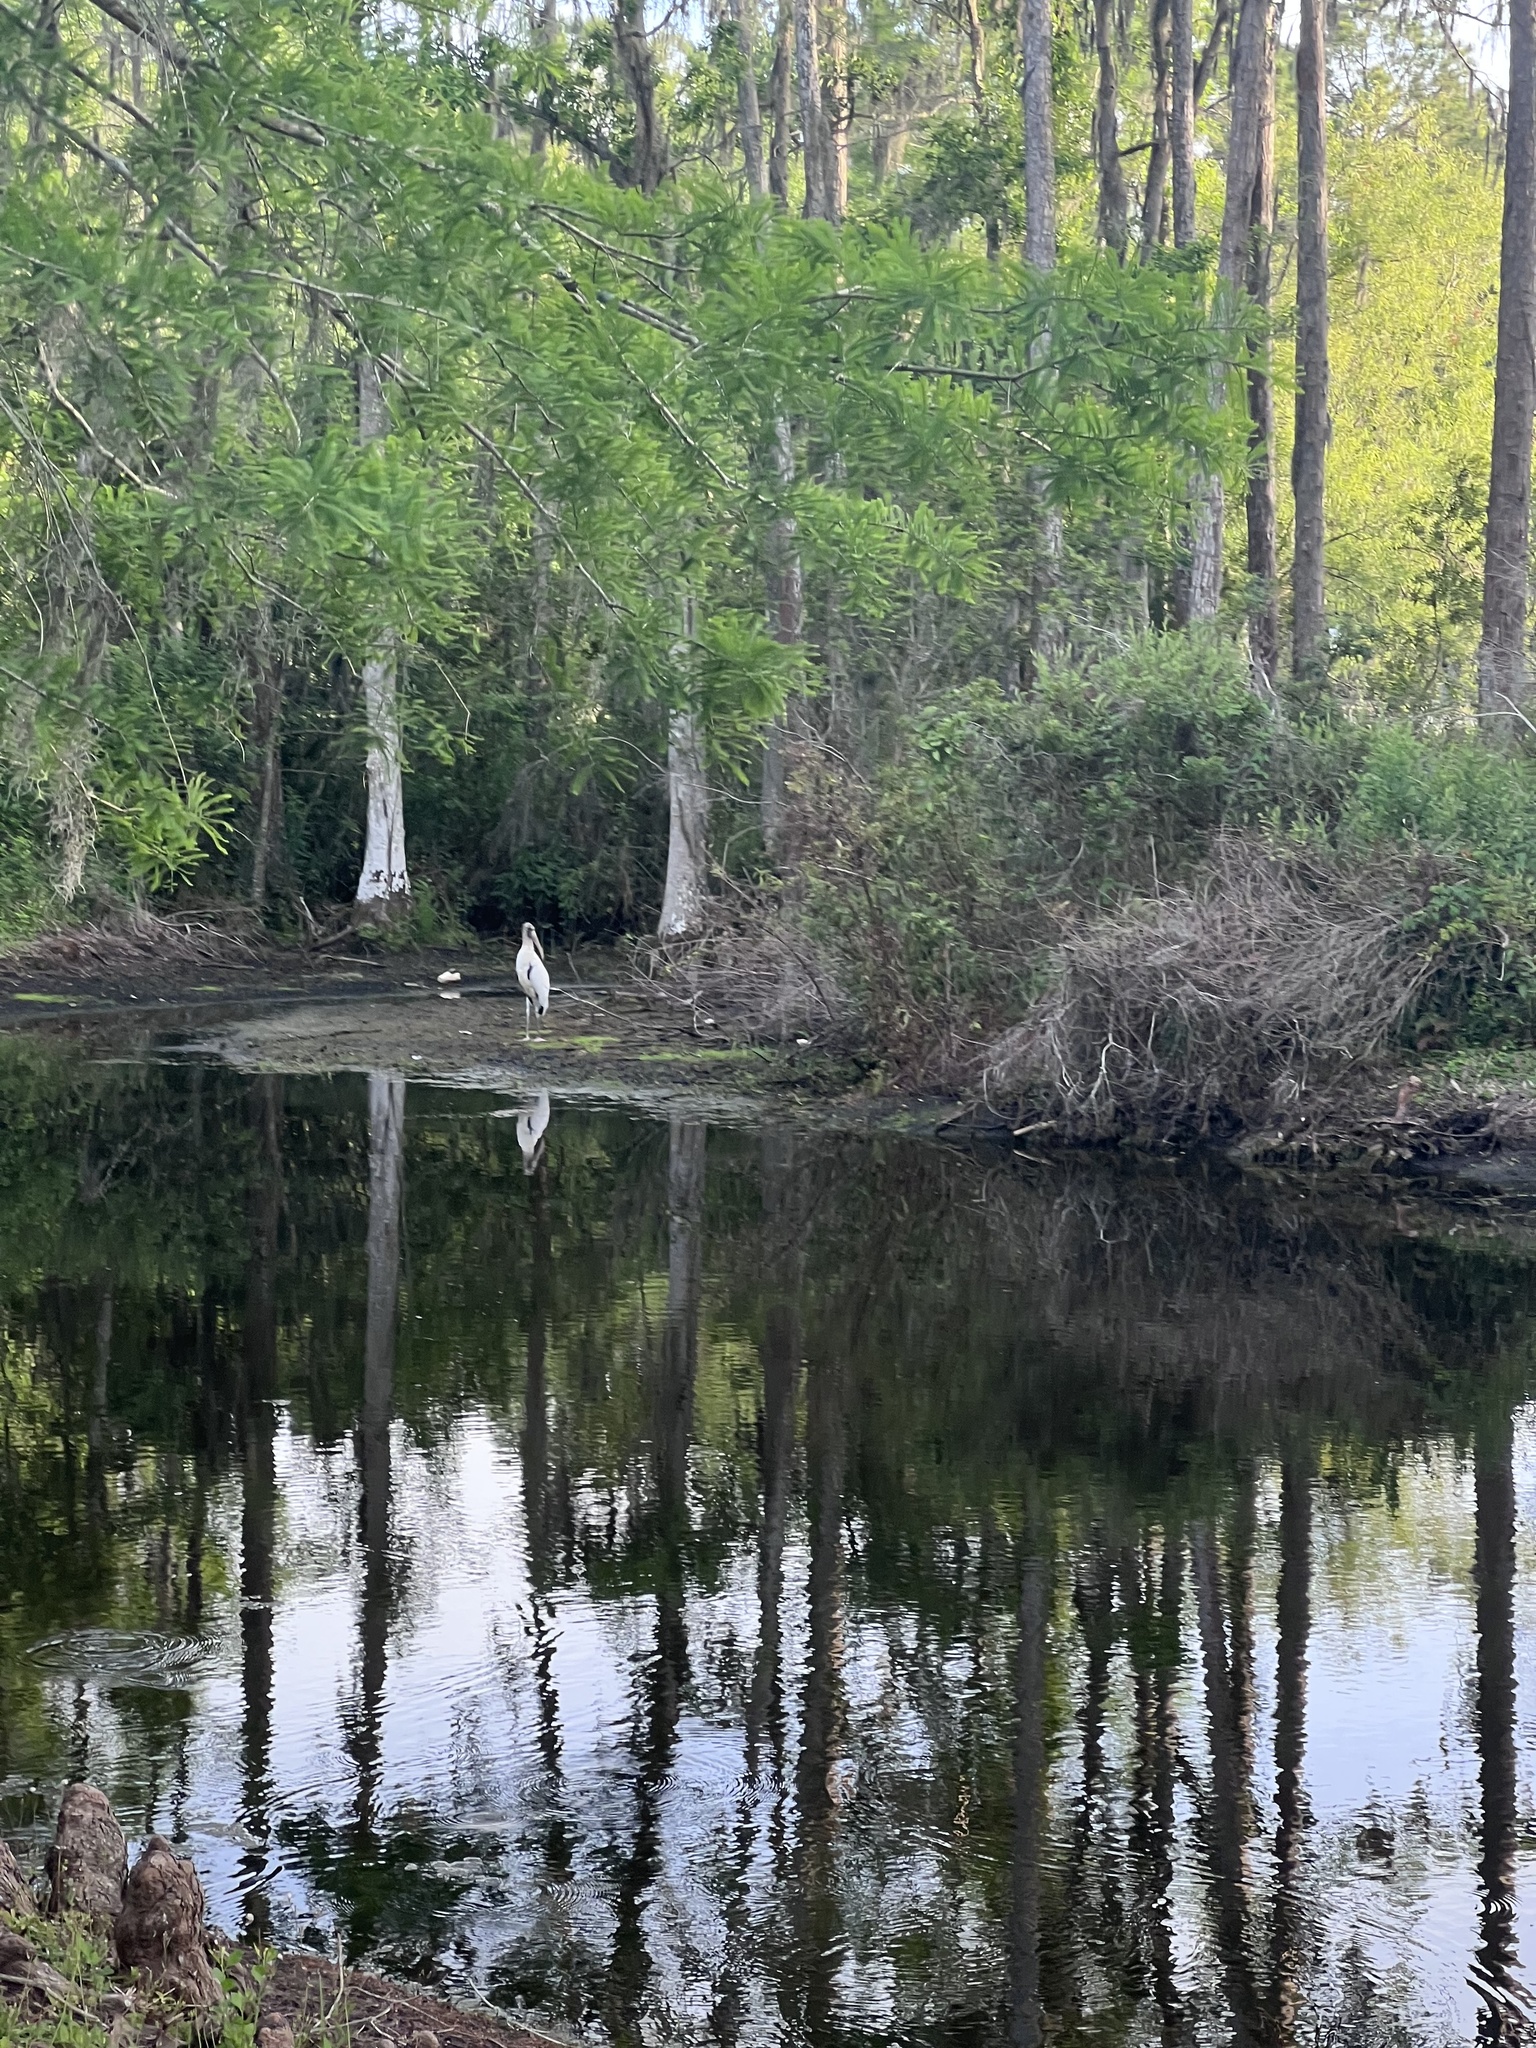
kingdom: Animalia
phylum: Chordata
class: Aves
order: Ciconiiformes
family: Ciconiidae
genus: Mycteria
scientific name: Mycteria americana
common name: Wood stork
